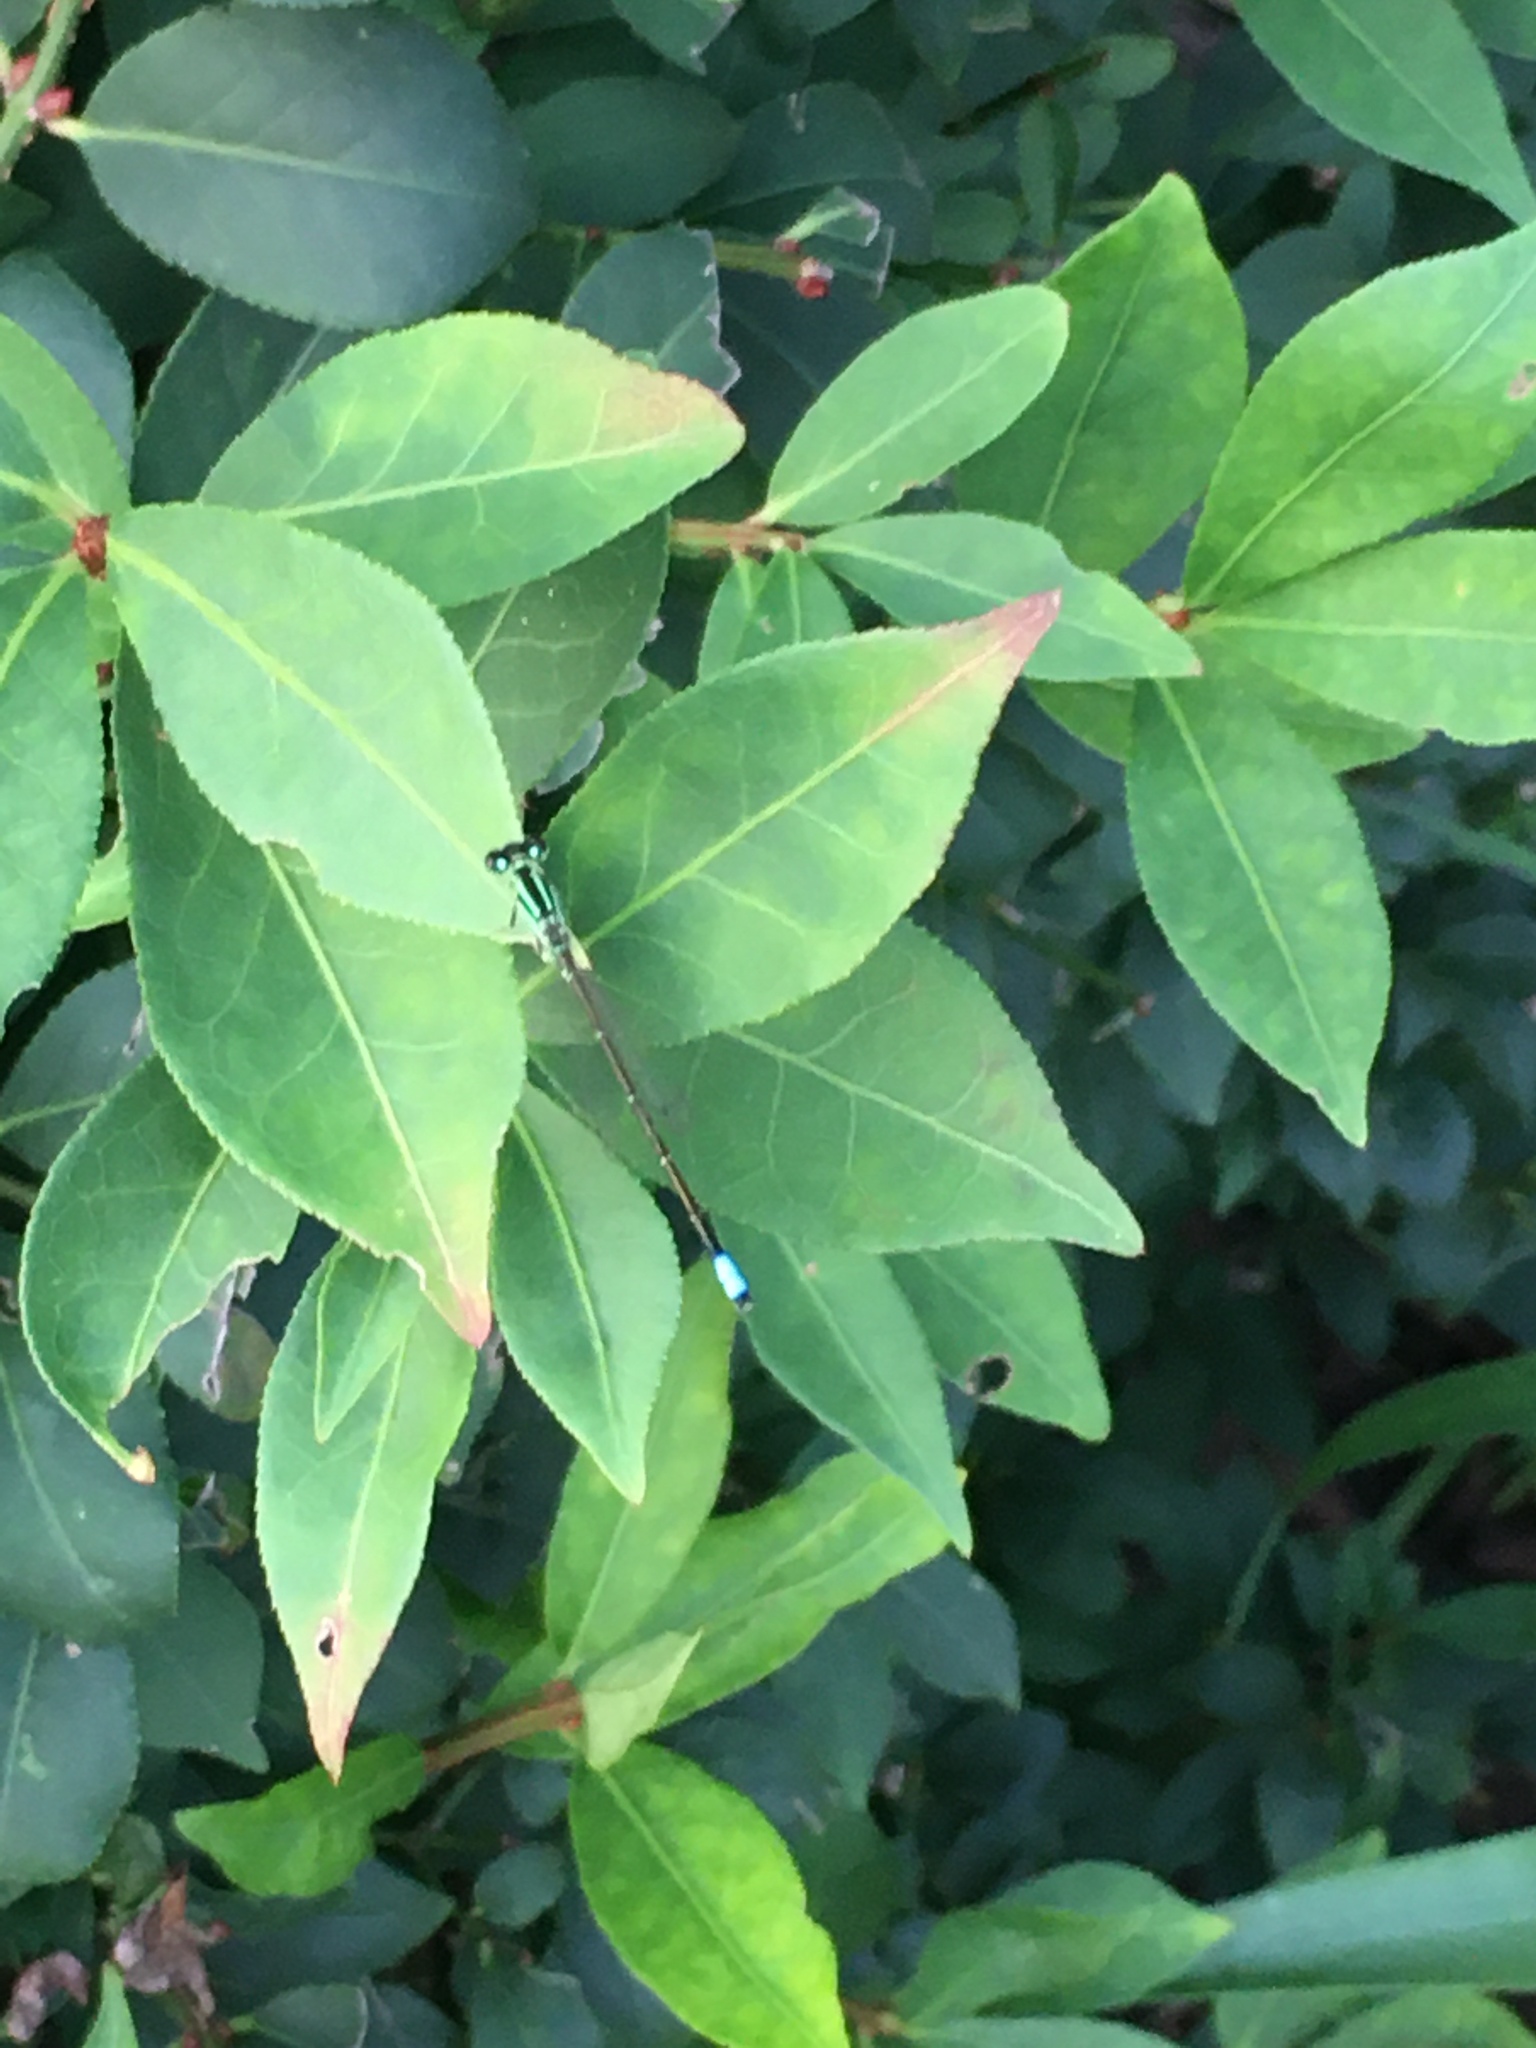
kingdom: Animalia
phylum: Arthropoda
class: Insecta
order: Odonata
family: Coenagrionidae
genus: Ischnura
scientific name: Ischnura verticalis
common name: Eastern forktail
